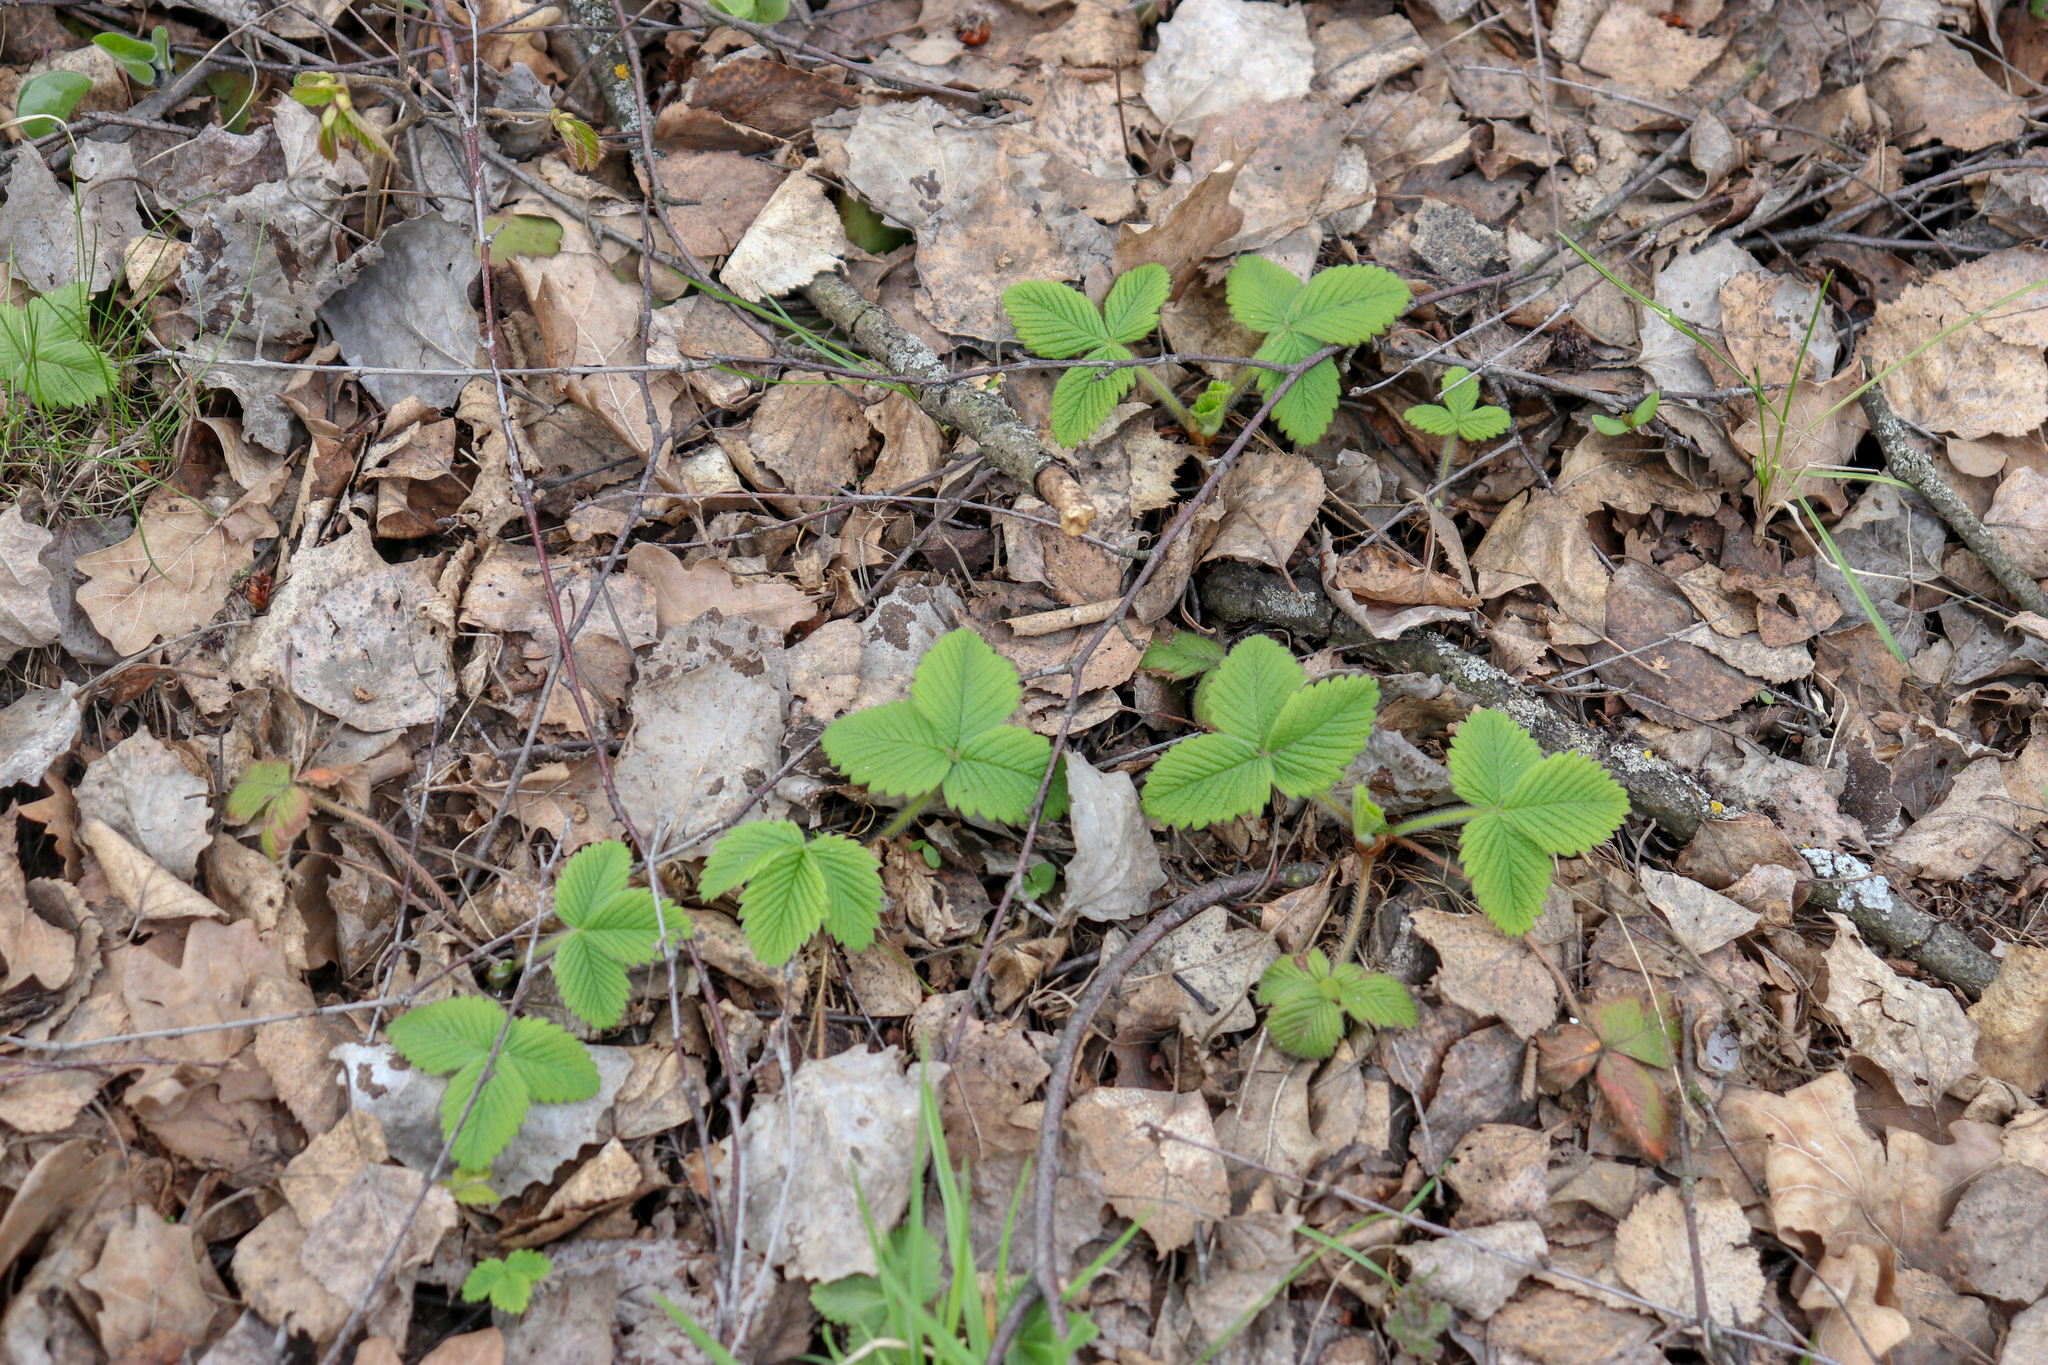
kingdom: Plantae
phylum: Tracheophyta
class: Magnoliopsida
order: Rosales
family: Rosaceae
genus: Fragaria
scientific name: Fragaria vesca
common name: Wild strawberry
